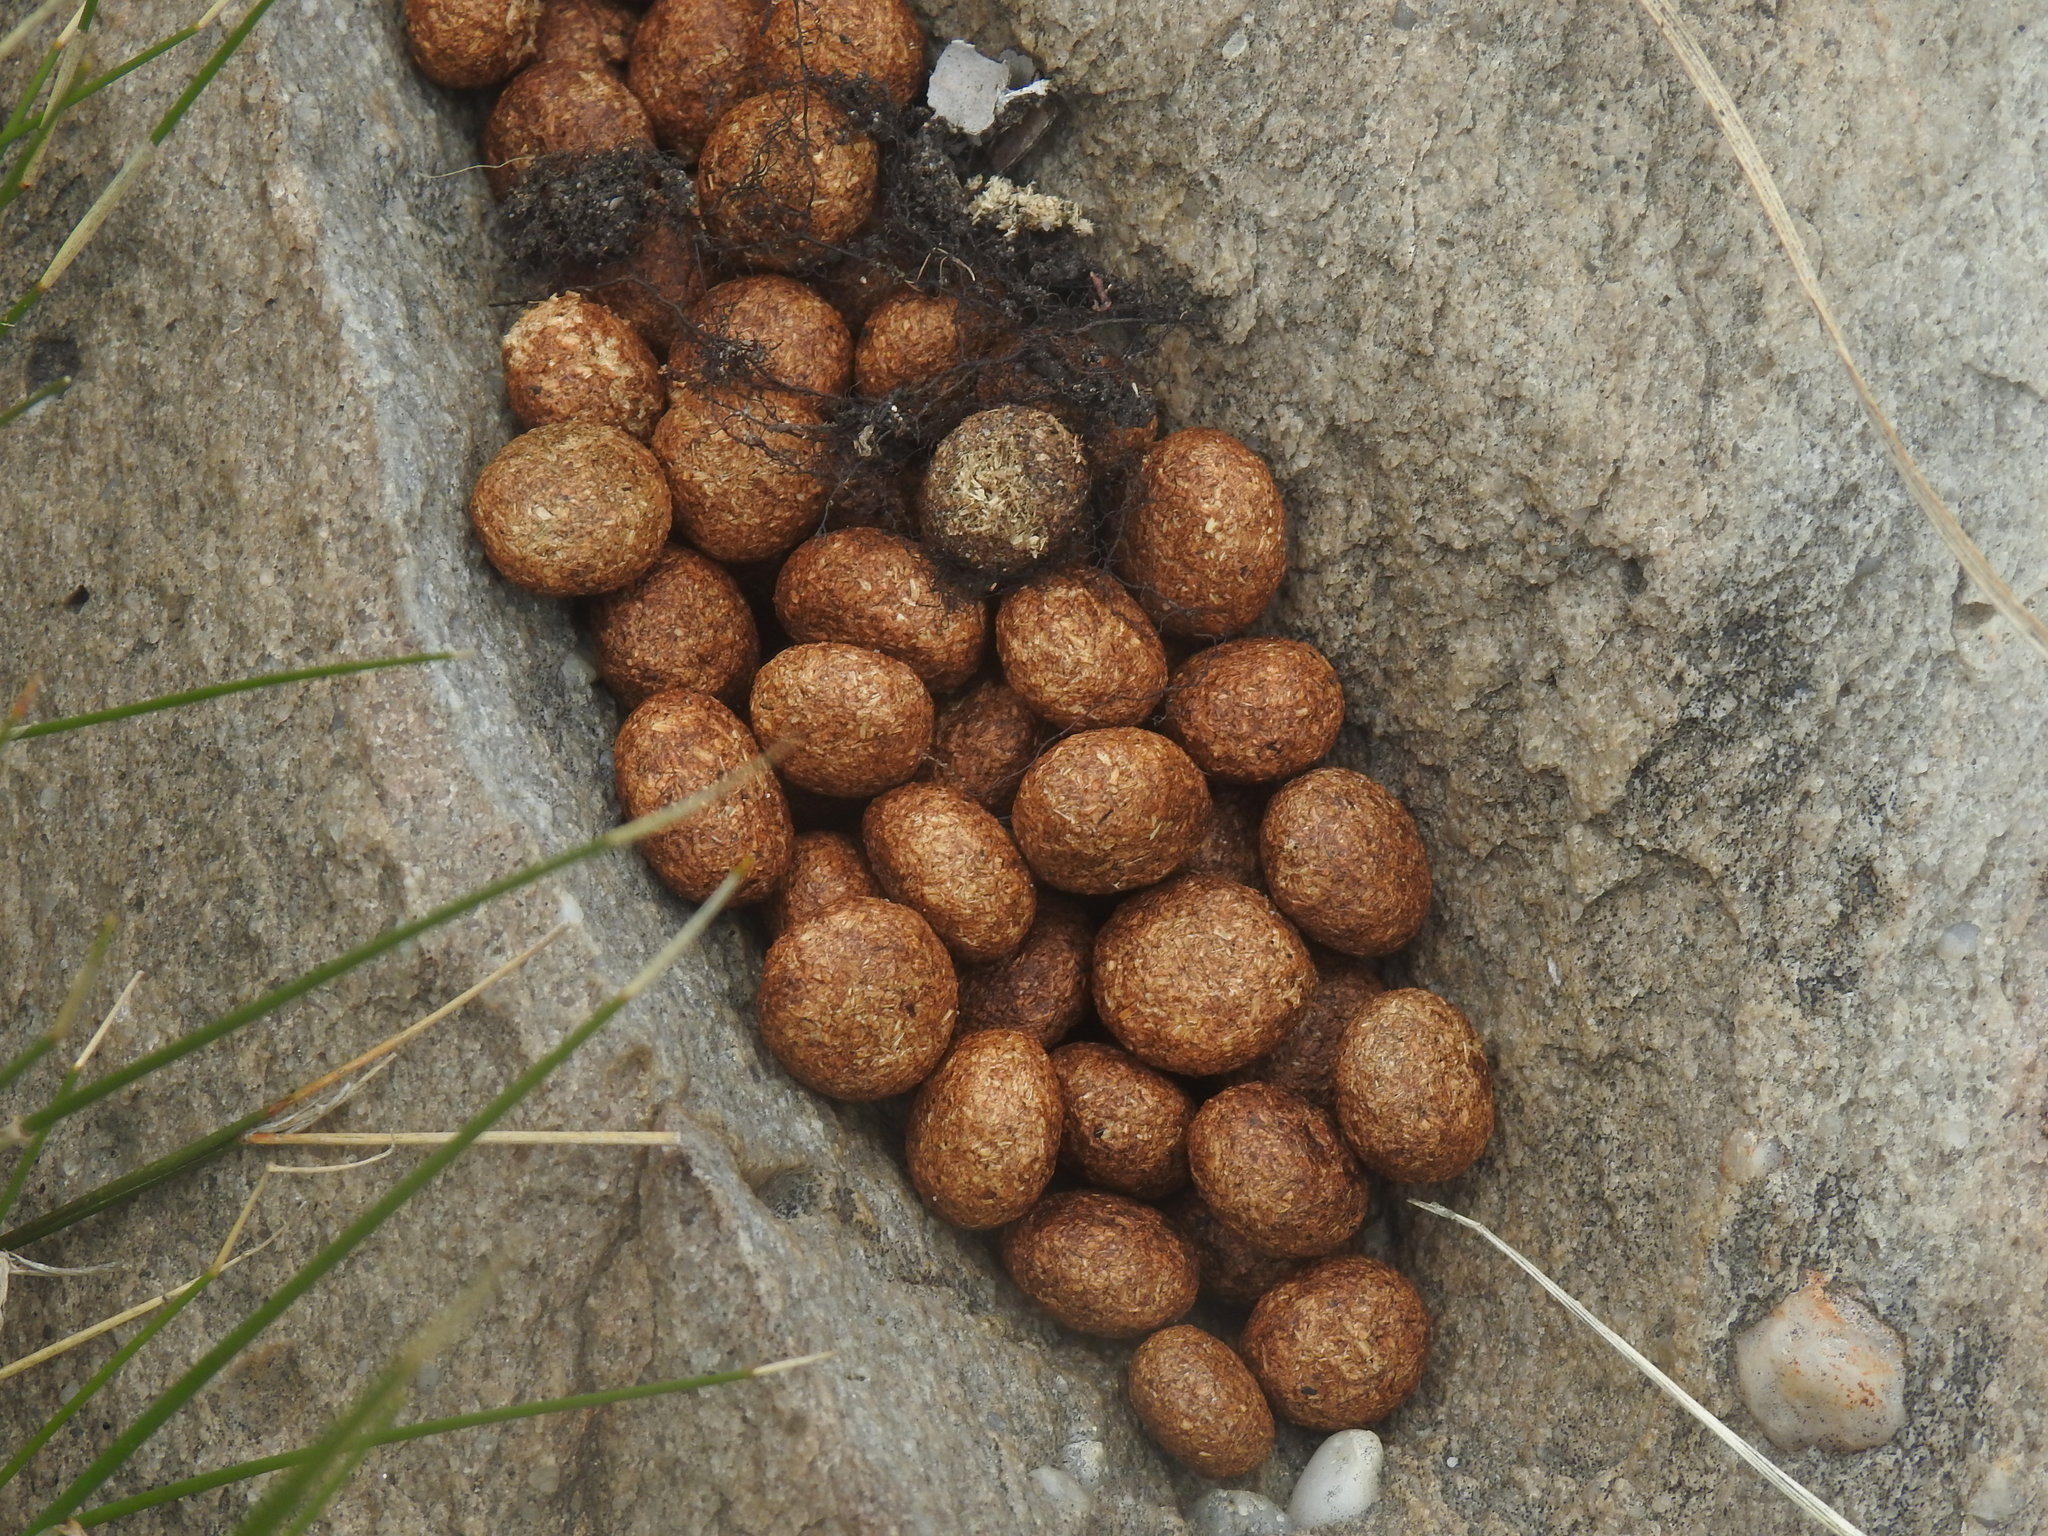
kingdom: Animalia
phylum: Chordata
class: Mammalia
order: Lagomorpha
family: Leporidae
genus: Pronolagus
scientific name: Pronolagus saundersiae
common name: Hewitt's red rock hare
